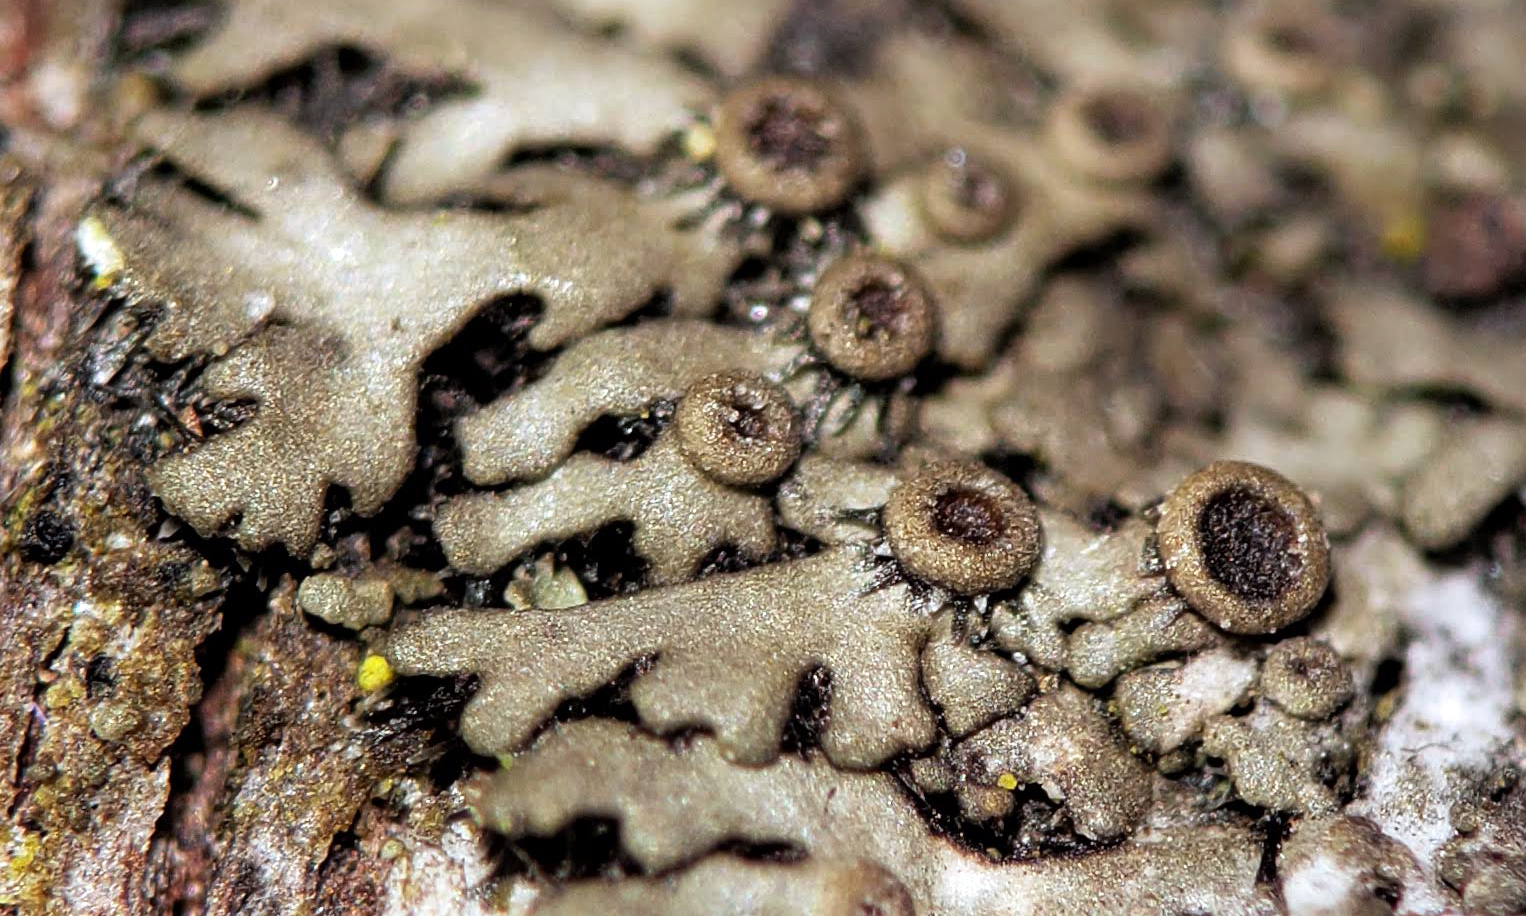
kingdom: Fungi
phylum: Ascomycota
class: Lecanoromycetes
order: Caliciales
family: Physciaceae
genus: Phaeophyscia
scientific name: Phaeophyscia ciliata
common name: Smooth shadow lichen
